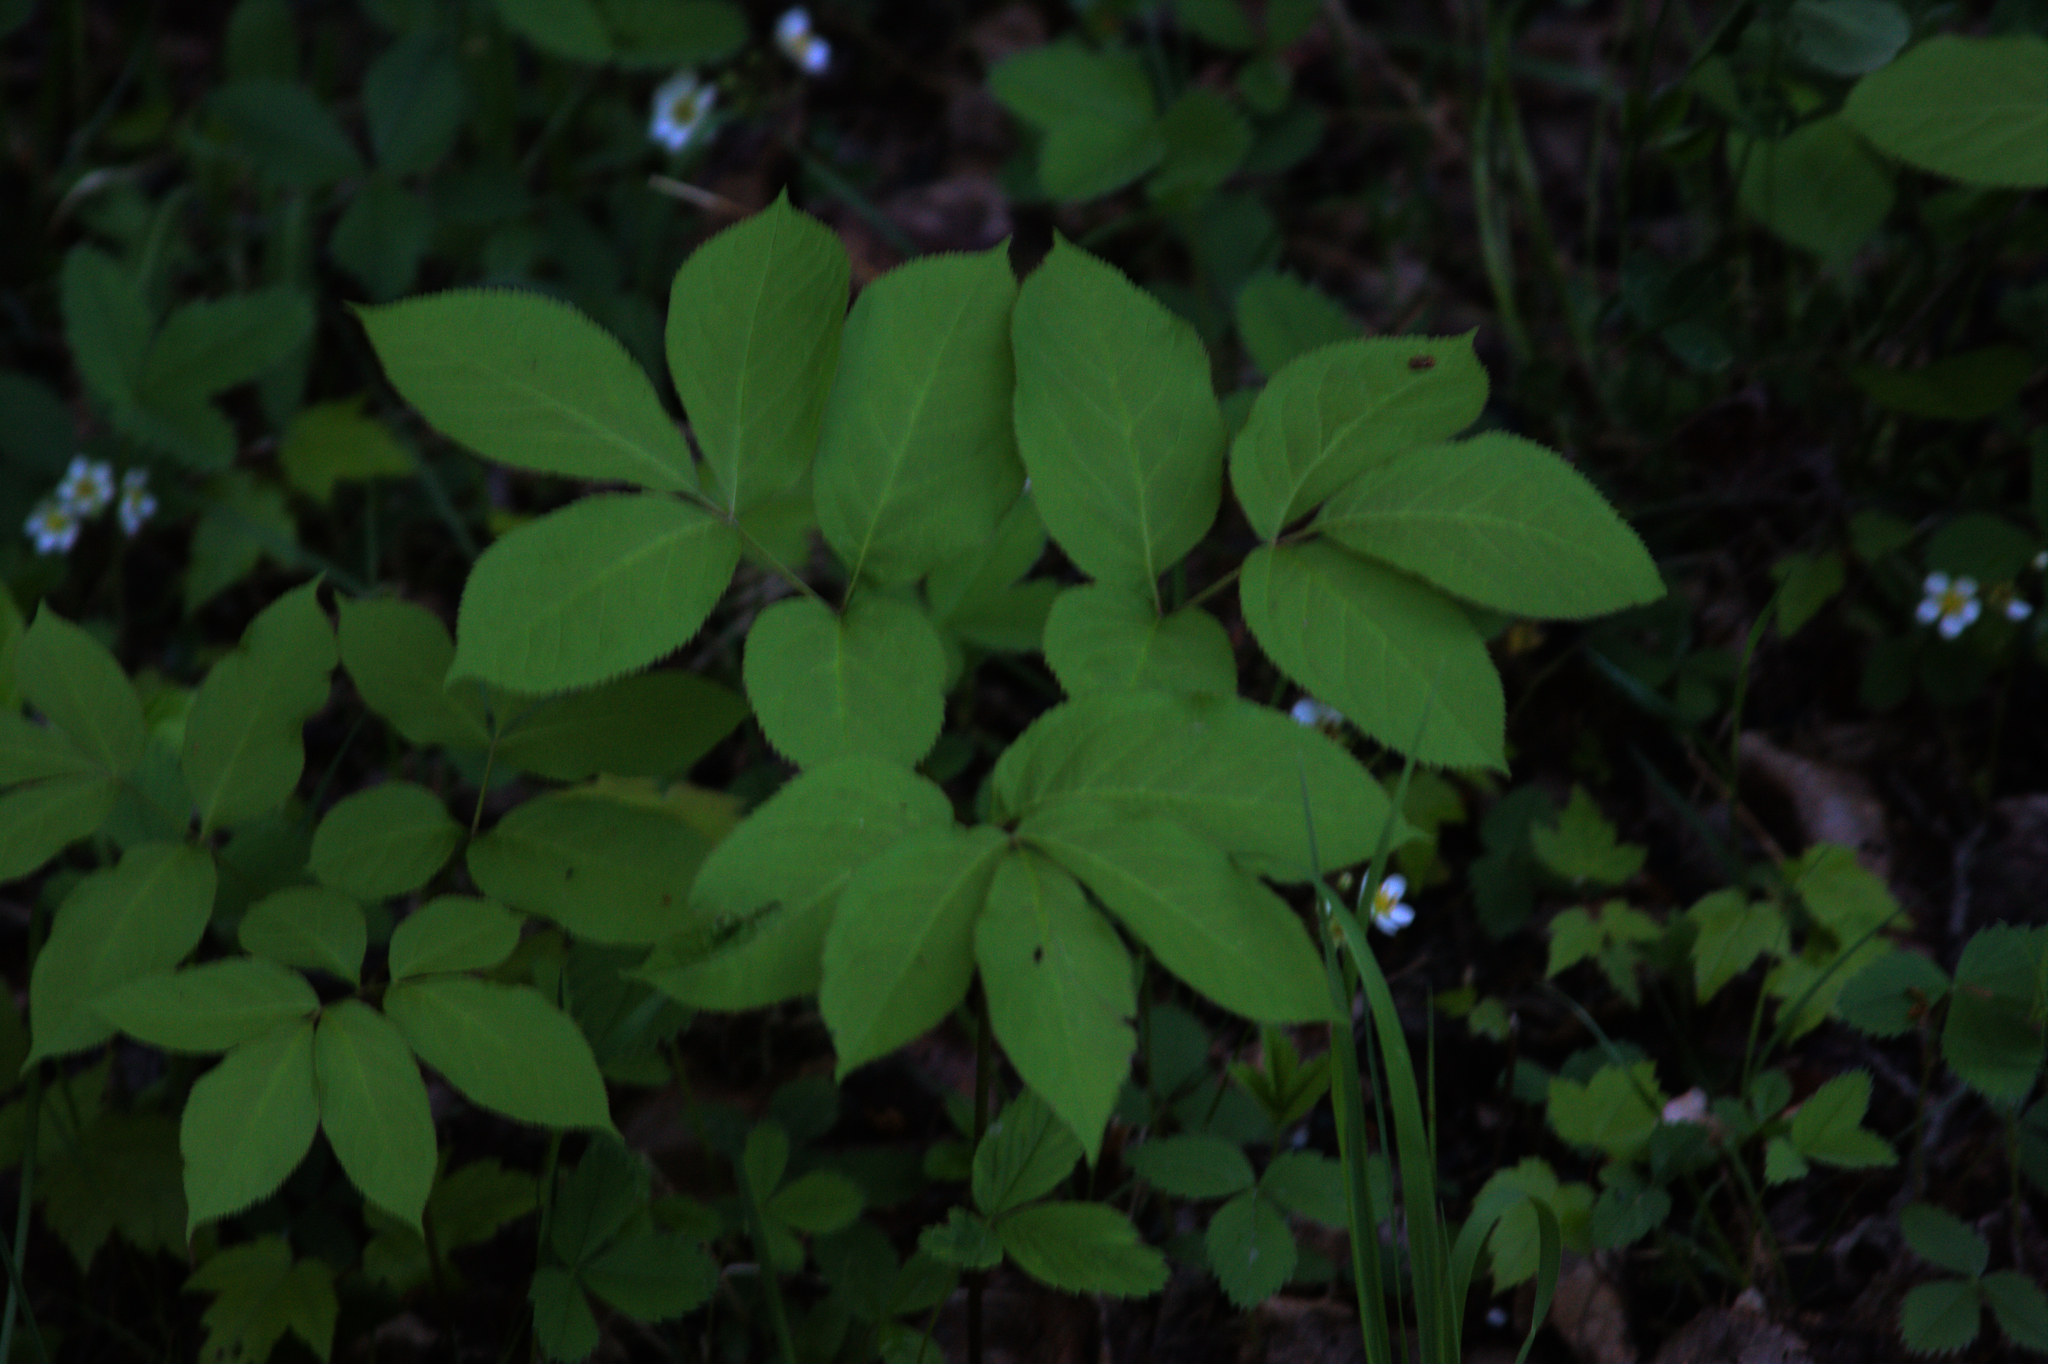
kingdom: Plantae
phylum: Tracheophyta
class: Magnoliopsida
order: Apiales
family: Araliaceae
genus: Aralia
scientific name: Aralia nudicaulis
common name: Wild sarsaparilla
